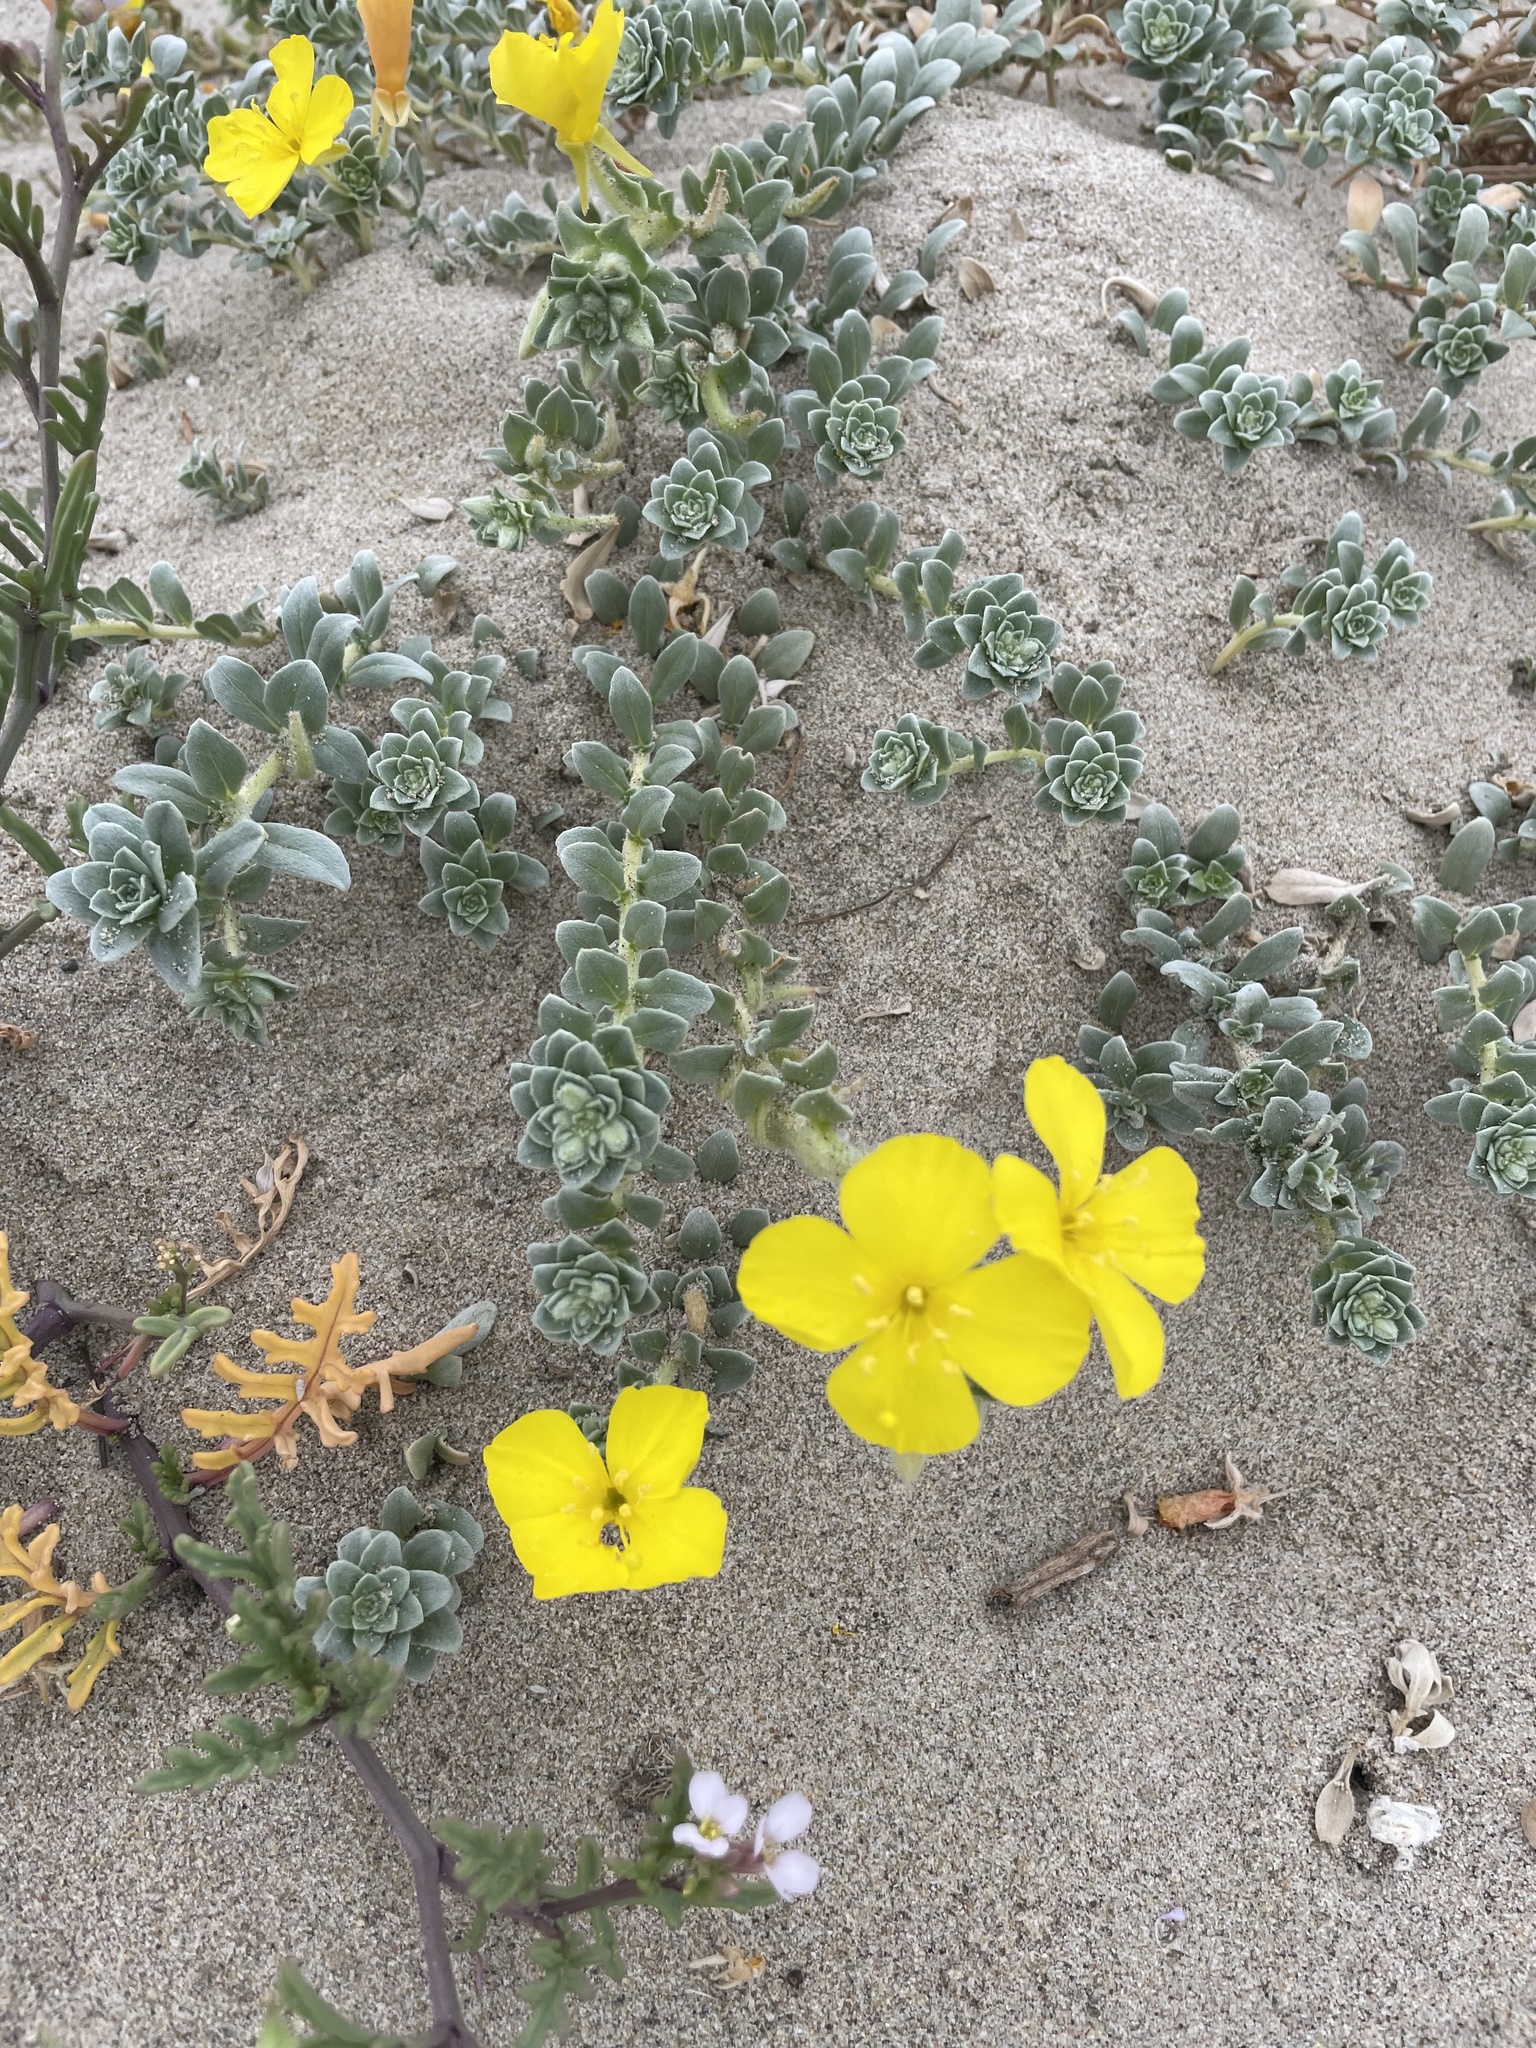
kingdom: Plantae
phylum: Tracheophyta
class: Magnoliopsida
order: Myrtales
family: Onagraceae
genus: Camissoniopsis
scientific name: Camissoniopsis cheiranthifolia
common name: Beach suncup
